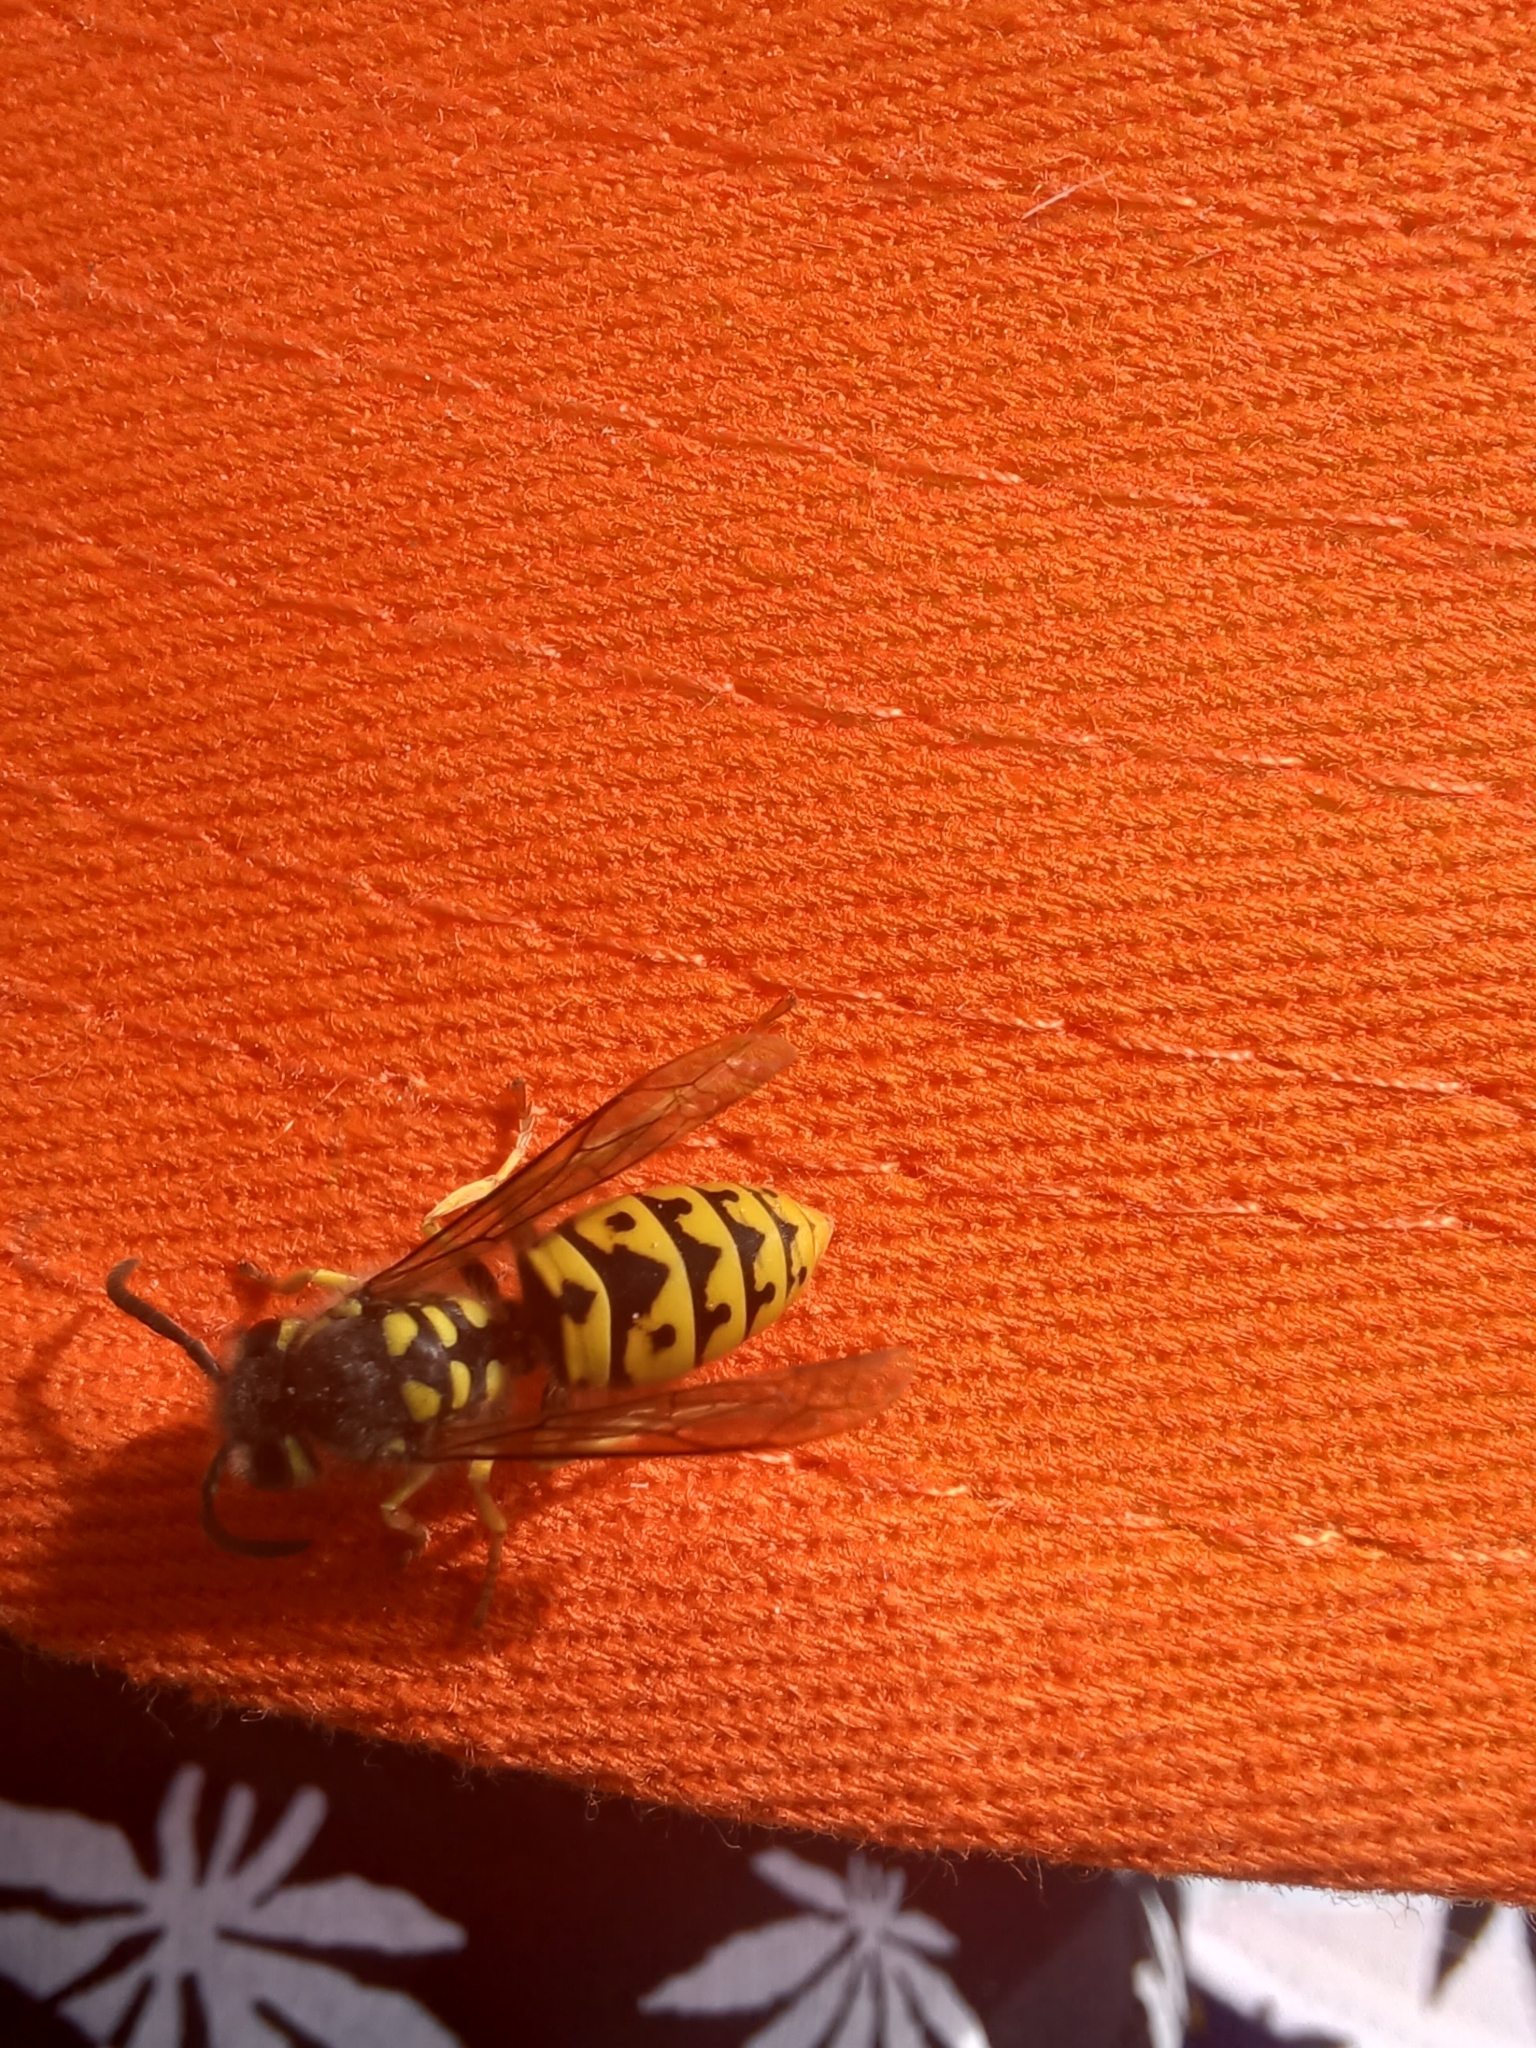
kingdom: Animalia
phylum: Arthropoda
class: Insecta
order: Hymenoptera
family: Vespidae
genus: Vespula
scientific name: Vespula germanica
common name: German wasp
